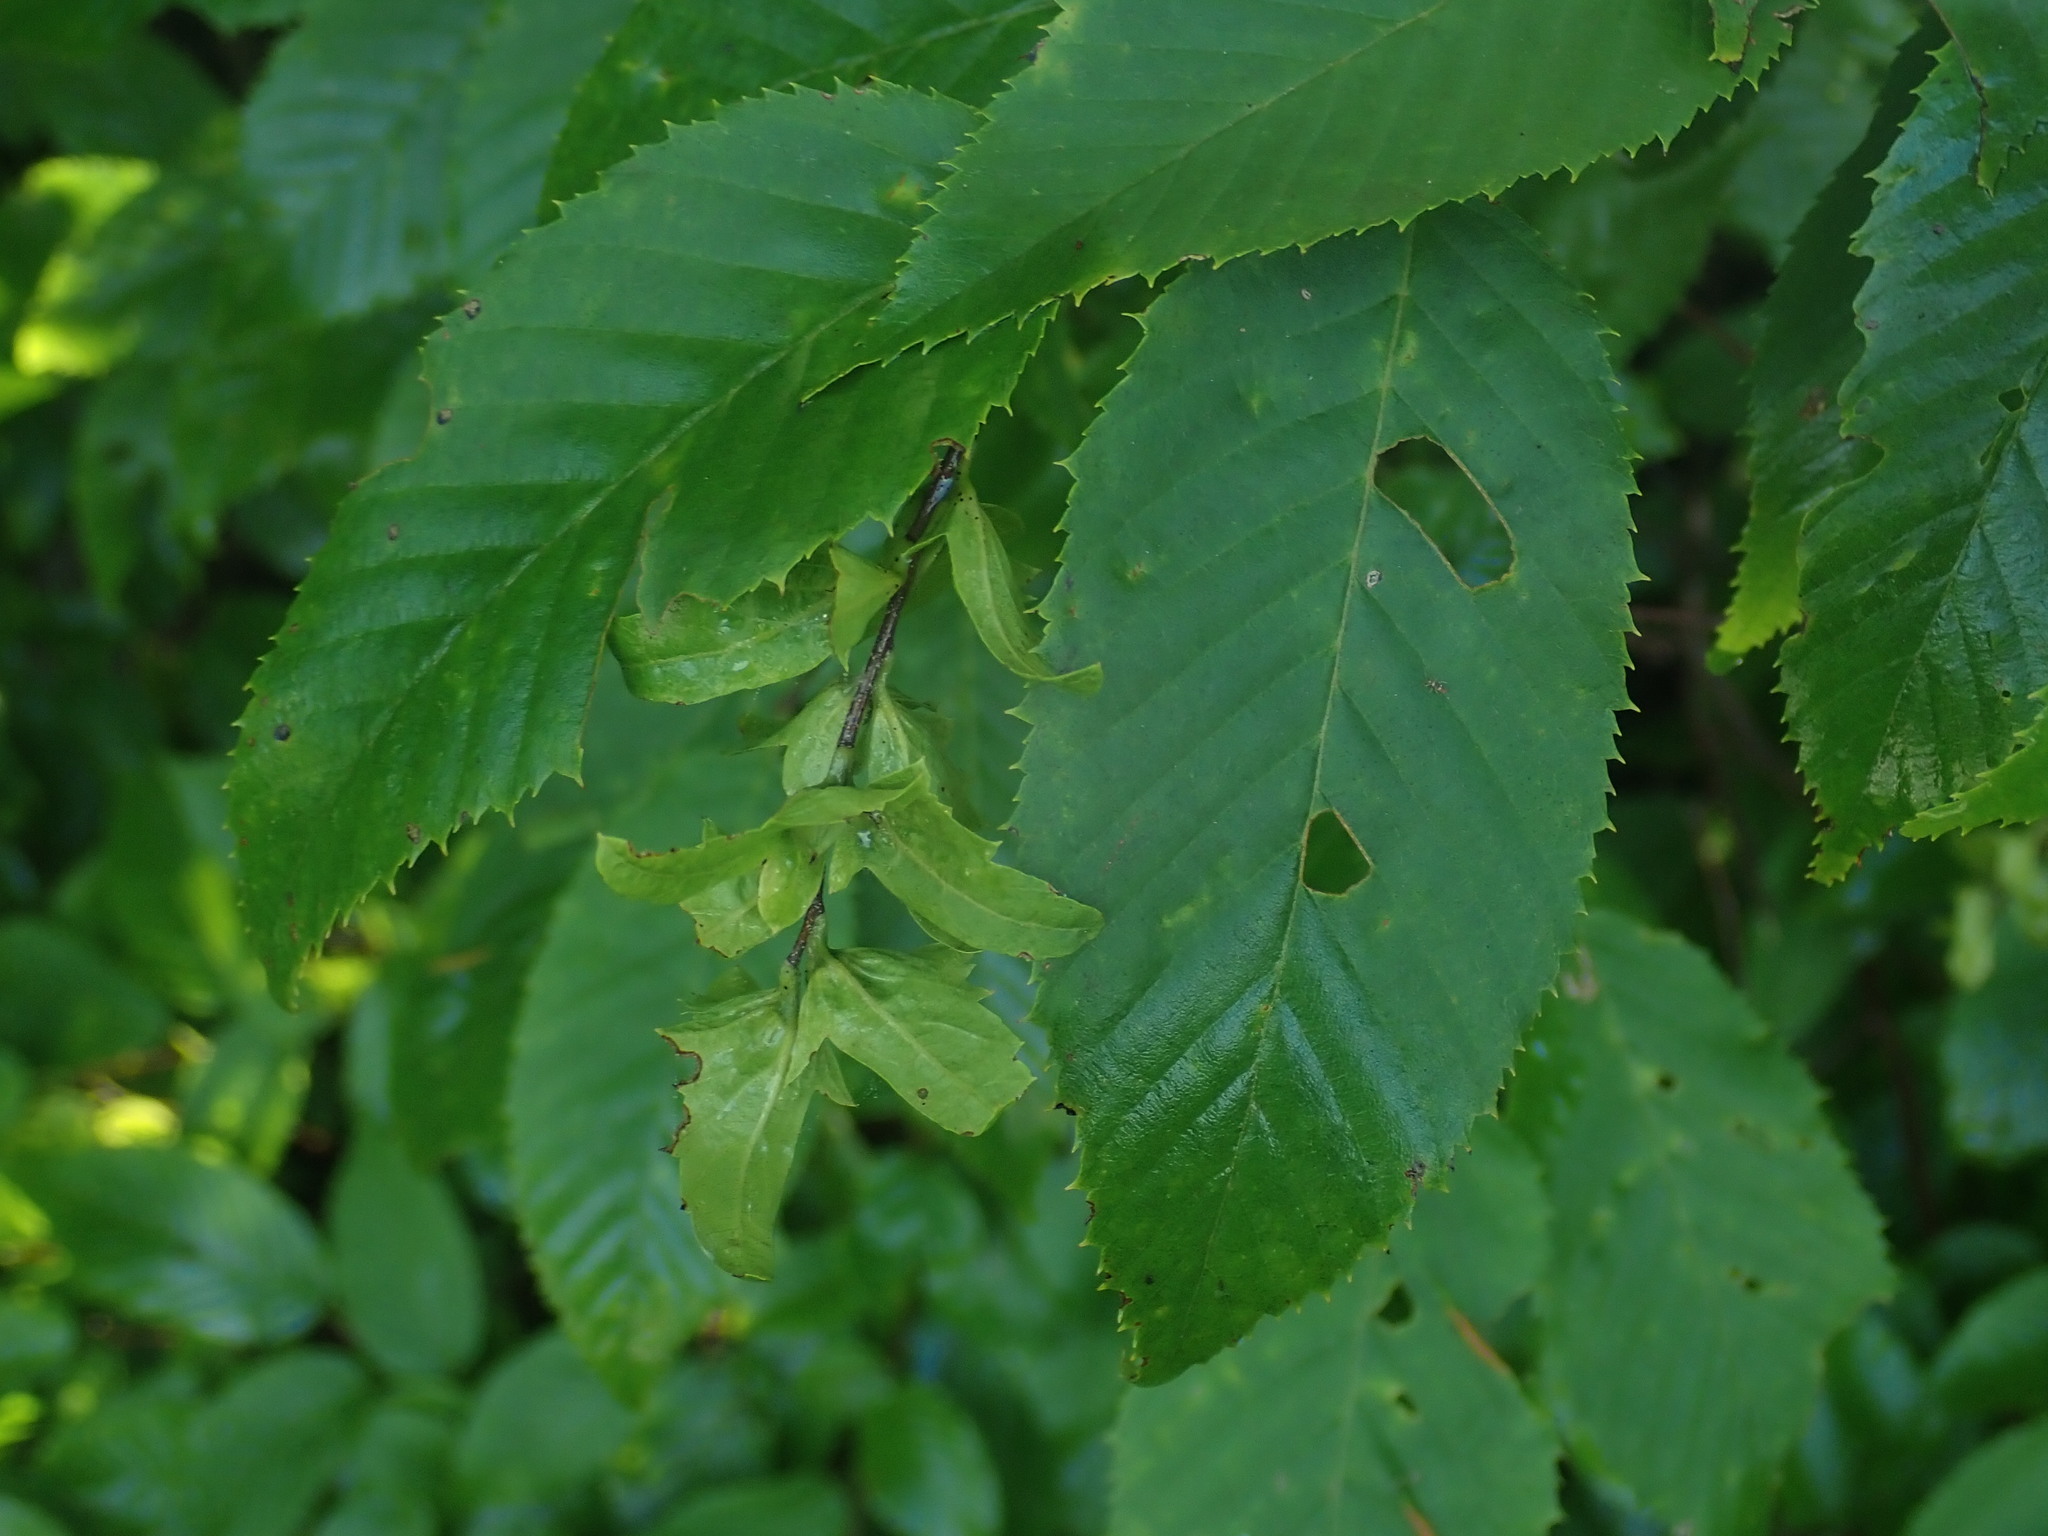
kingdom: Plantae
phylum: Tracheophyta
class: Magnoliopsida
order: Fagales
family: Betulaceae
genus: Carpinus
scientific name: Carpinus caroliniana
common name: American hornbeam
